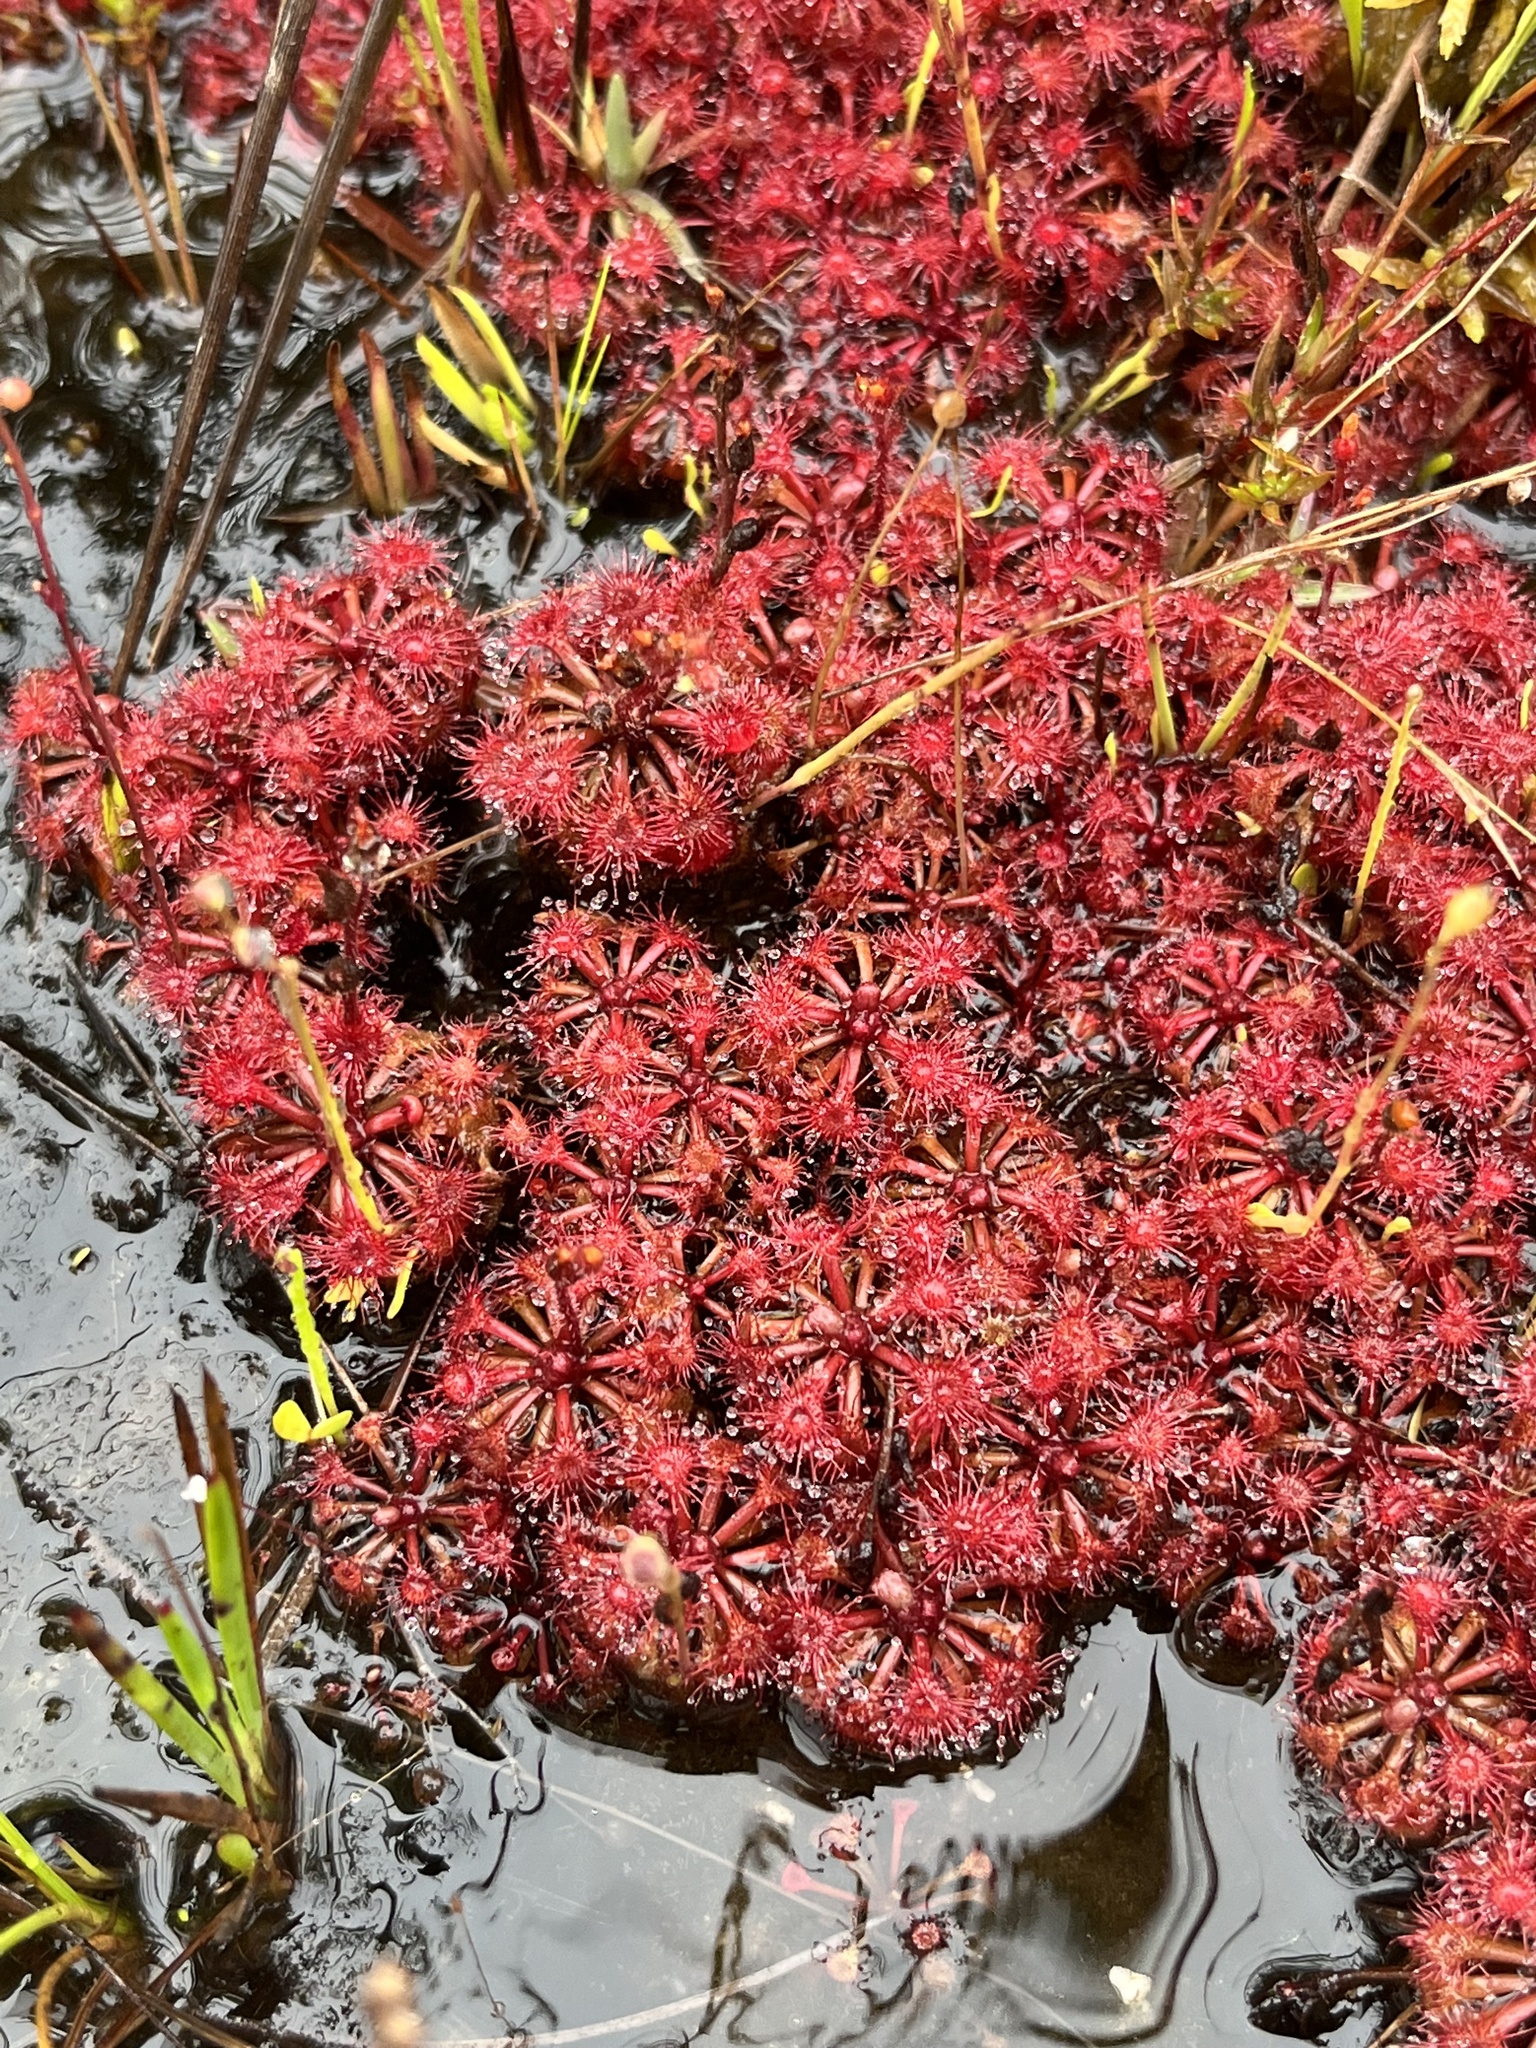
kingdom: Plantae
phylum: Tracheophyta
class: Magnoliopsida
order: Caryophyllales
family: Droseraceae
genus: Drosera
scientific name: Drosera felix
